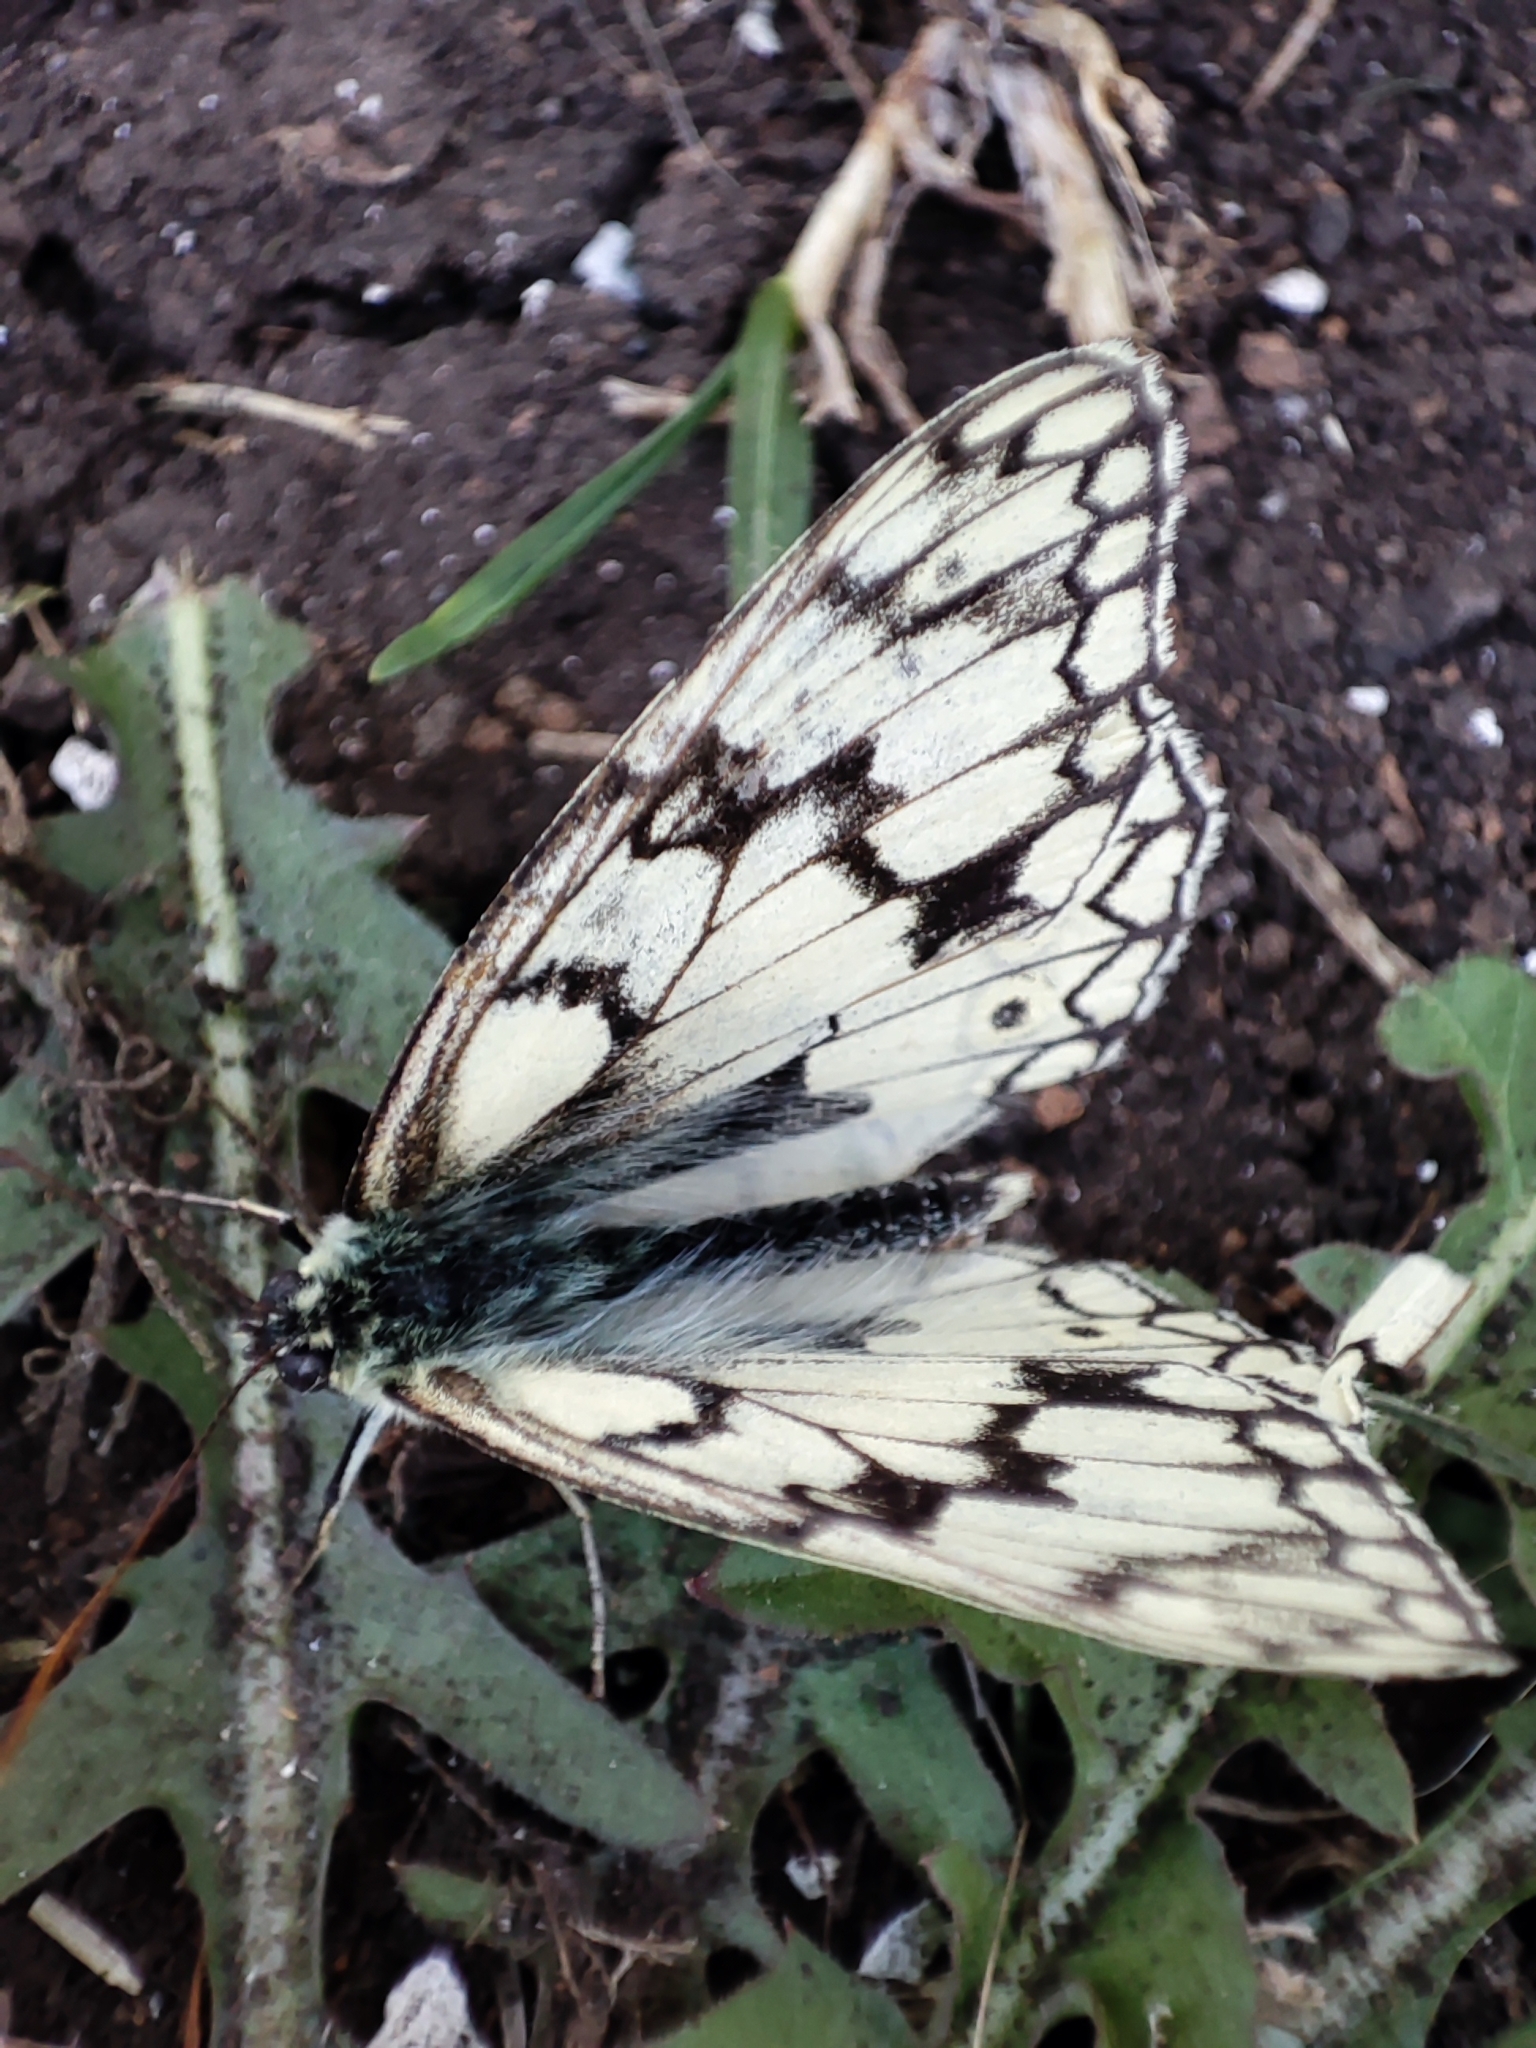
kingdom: Animalia
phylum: Arthropoda
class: Insecta
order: Lepidoptera
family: Nymphalidae
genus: Melanargia
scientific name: Melanargia japygia
